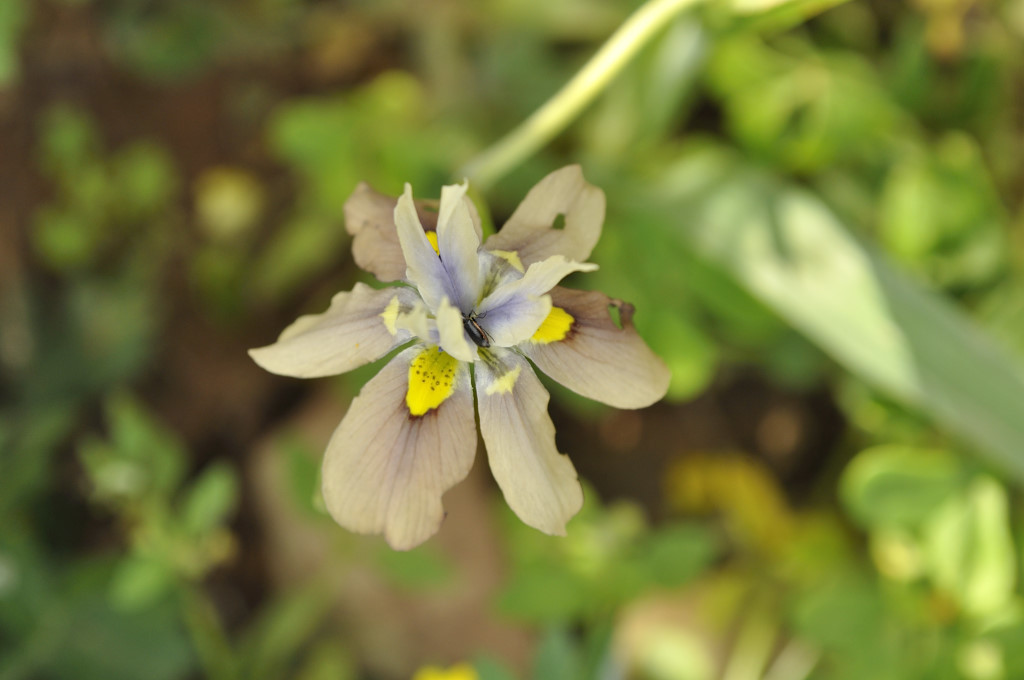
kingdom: Plantae
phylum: Tracheophyta
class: Liliopsida
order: Asparagales
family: Iridaceae
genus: Moraea
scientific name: Moraea vegeta
